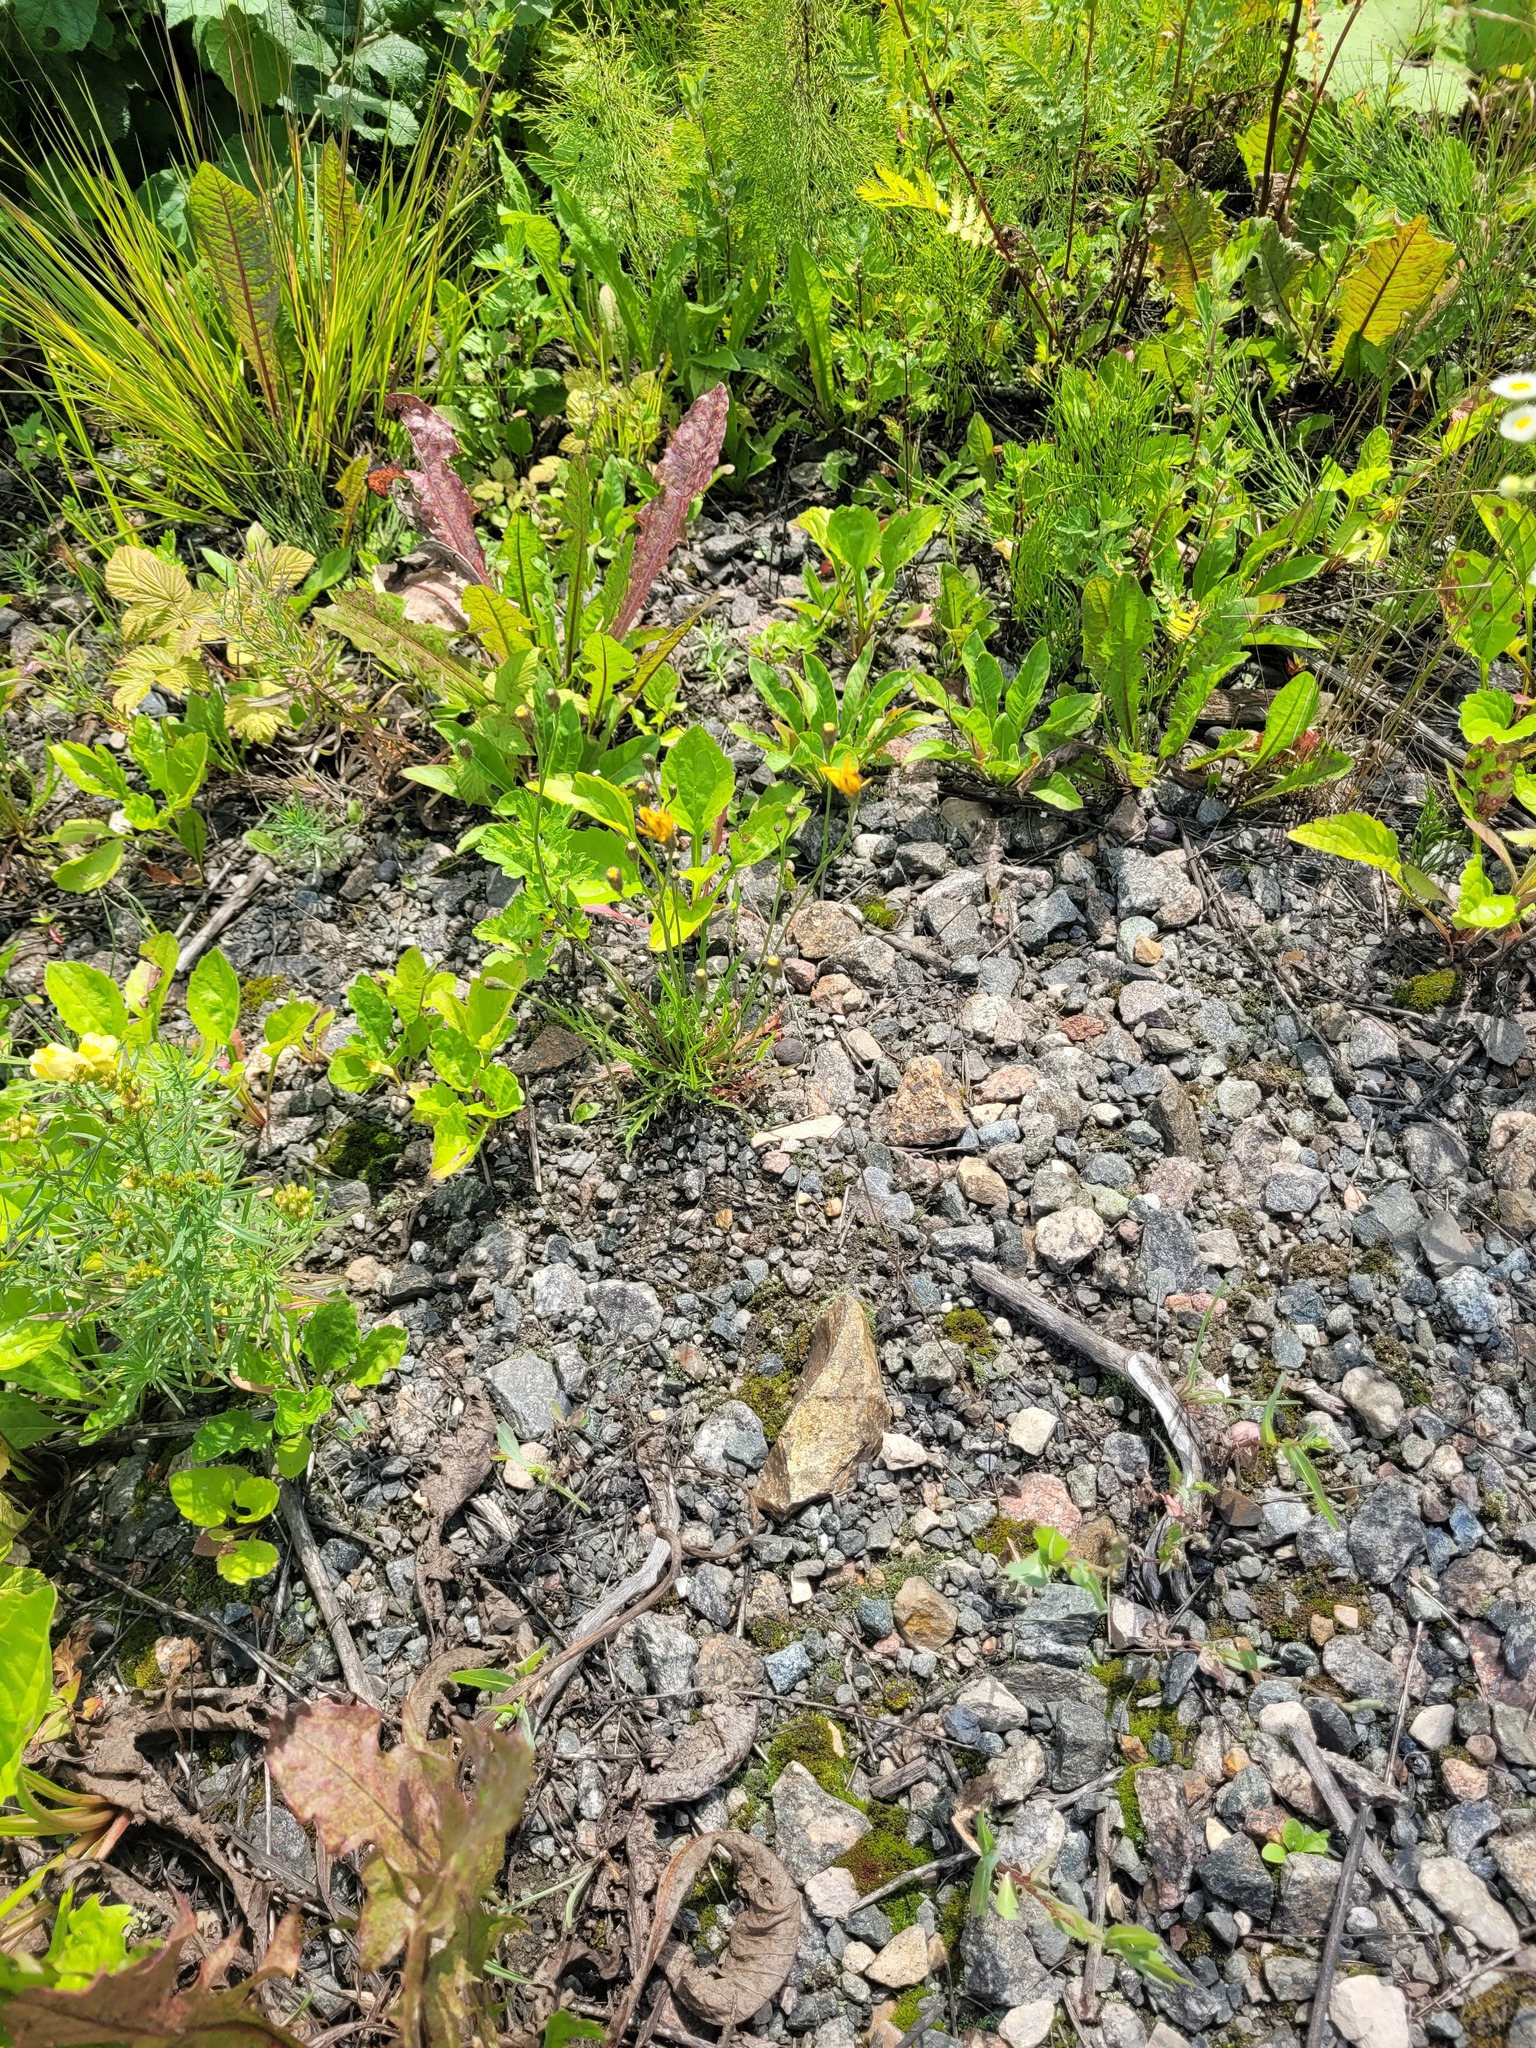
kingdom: Plantae
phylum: Tracheophyta
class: Magnoliopsida
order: Asterales
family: Asteraceae
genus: Scorzoneroides
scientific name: Scorzoneroides autumnalis
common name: Autumn hawkbit
